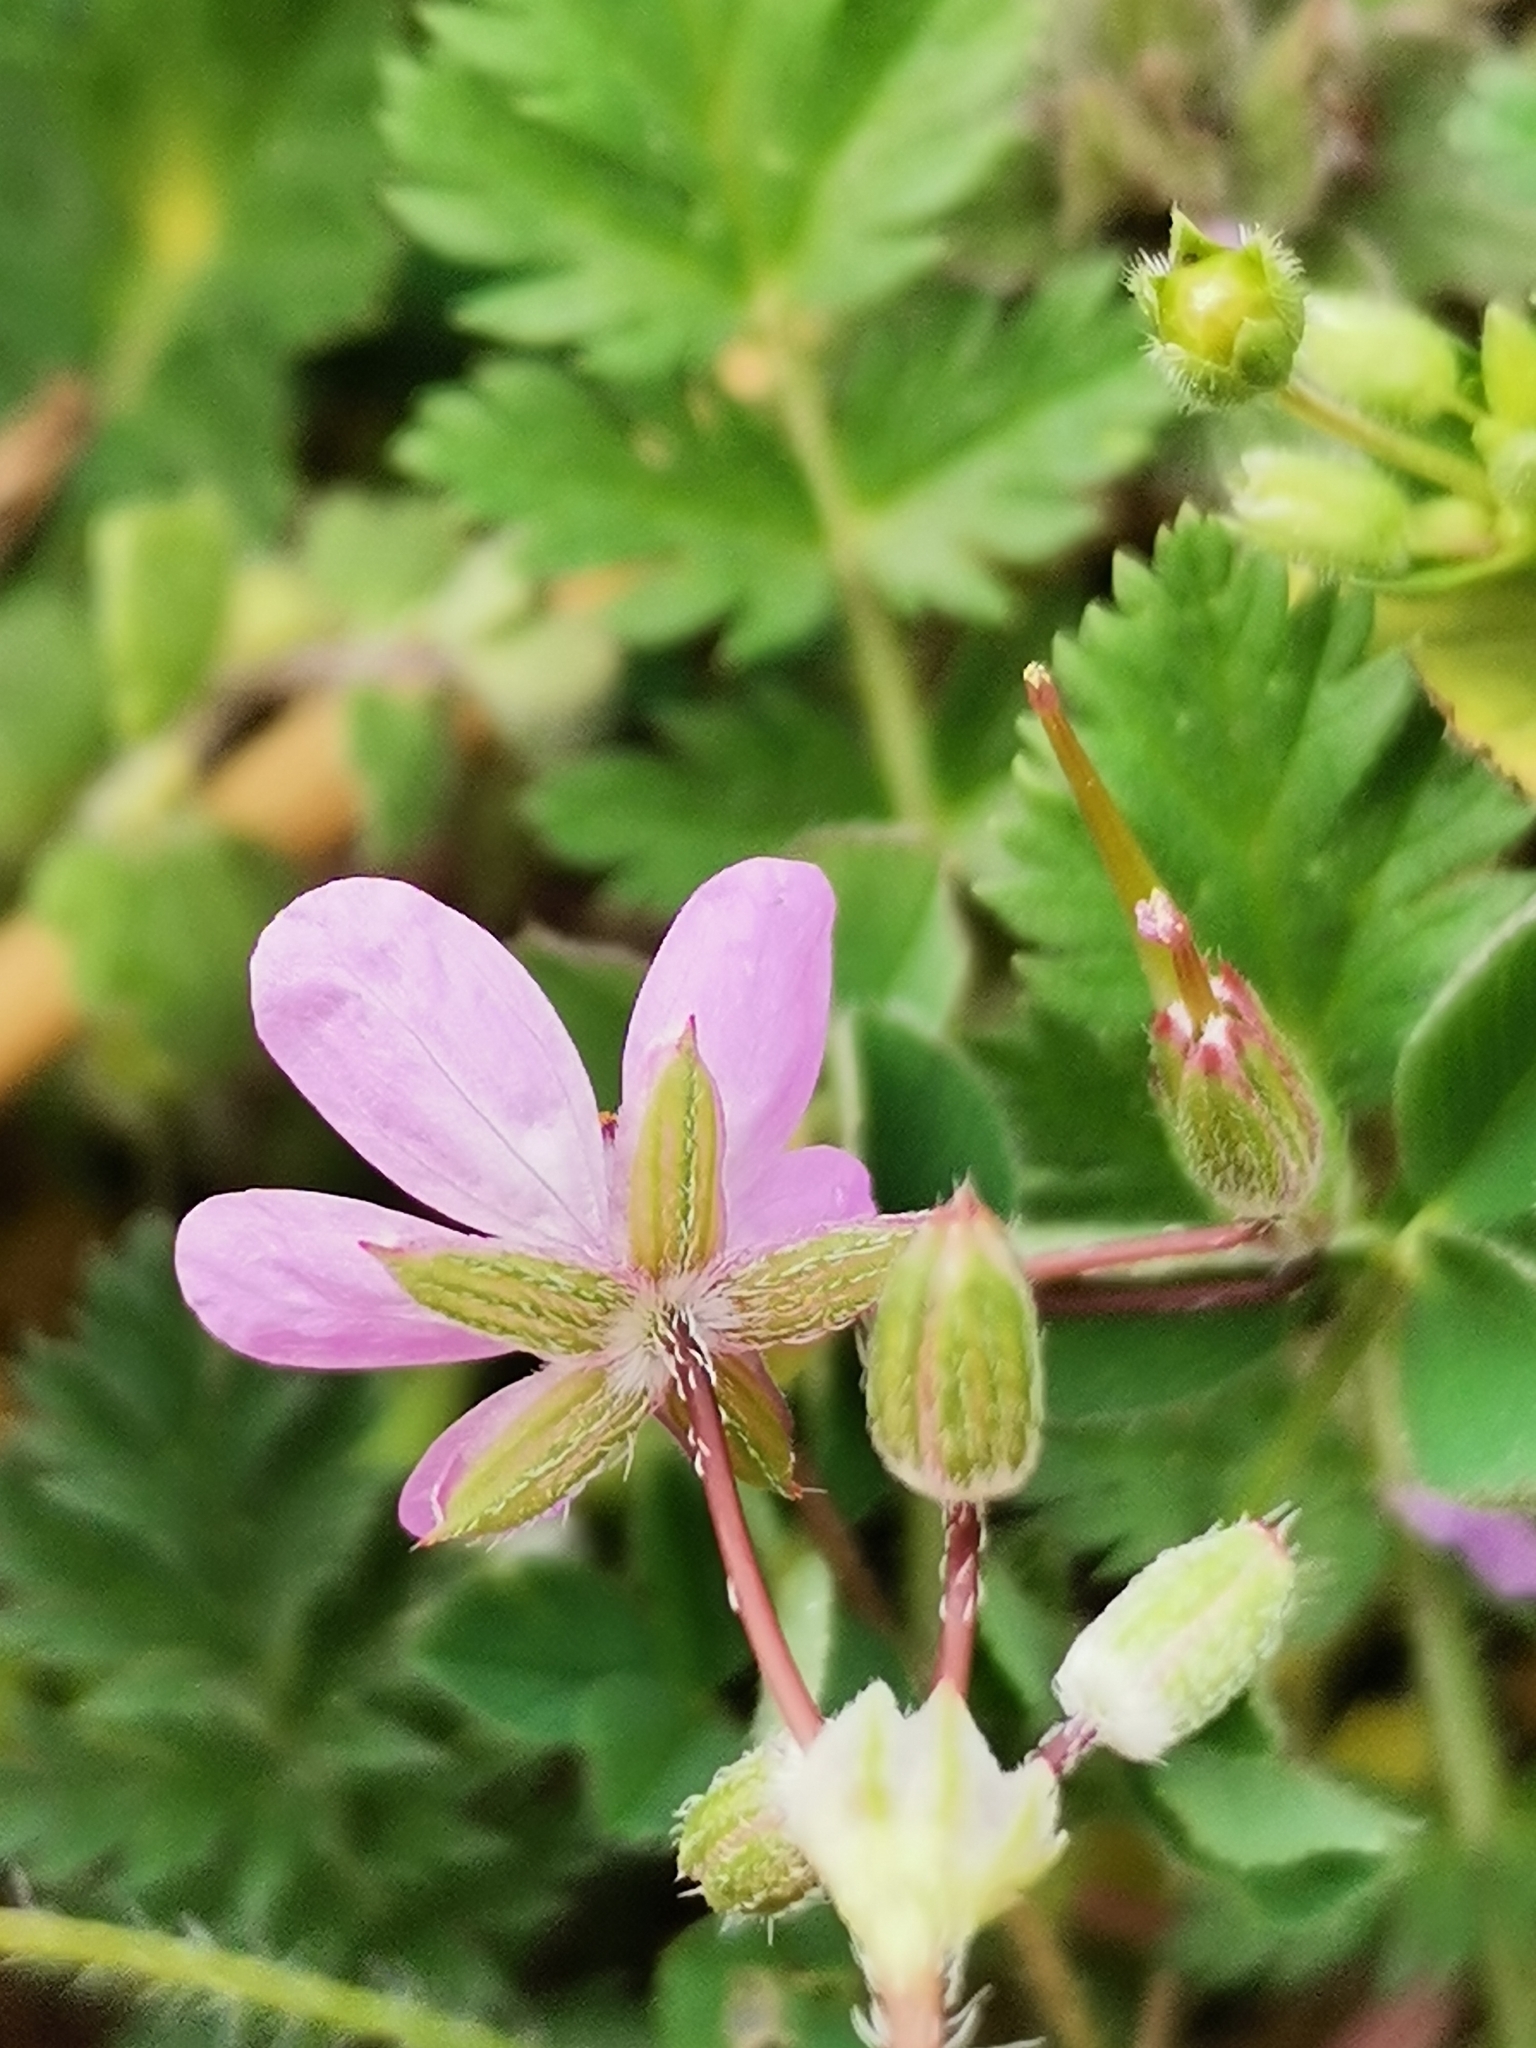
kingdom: Plantae
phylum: Tracheophyta
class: Magnoliopsida
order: Geraniales
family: Geraniaceae
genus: Erodium
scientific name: Erodium cicutarium
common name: Common stork's-bill
